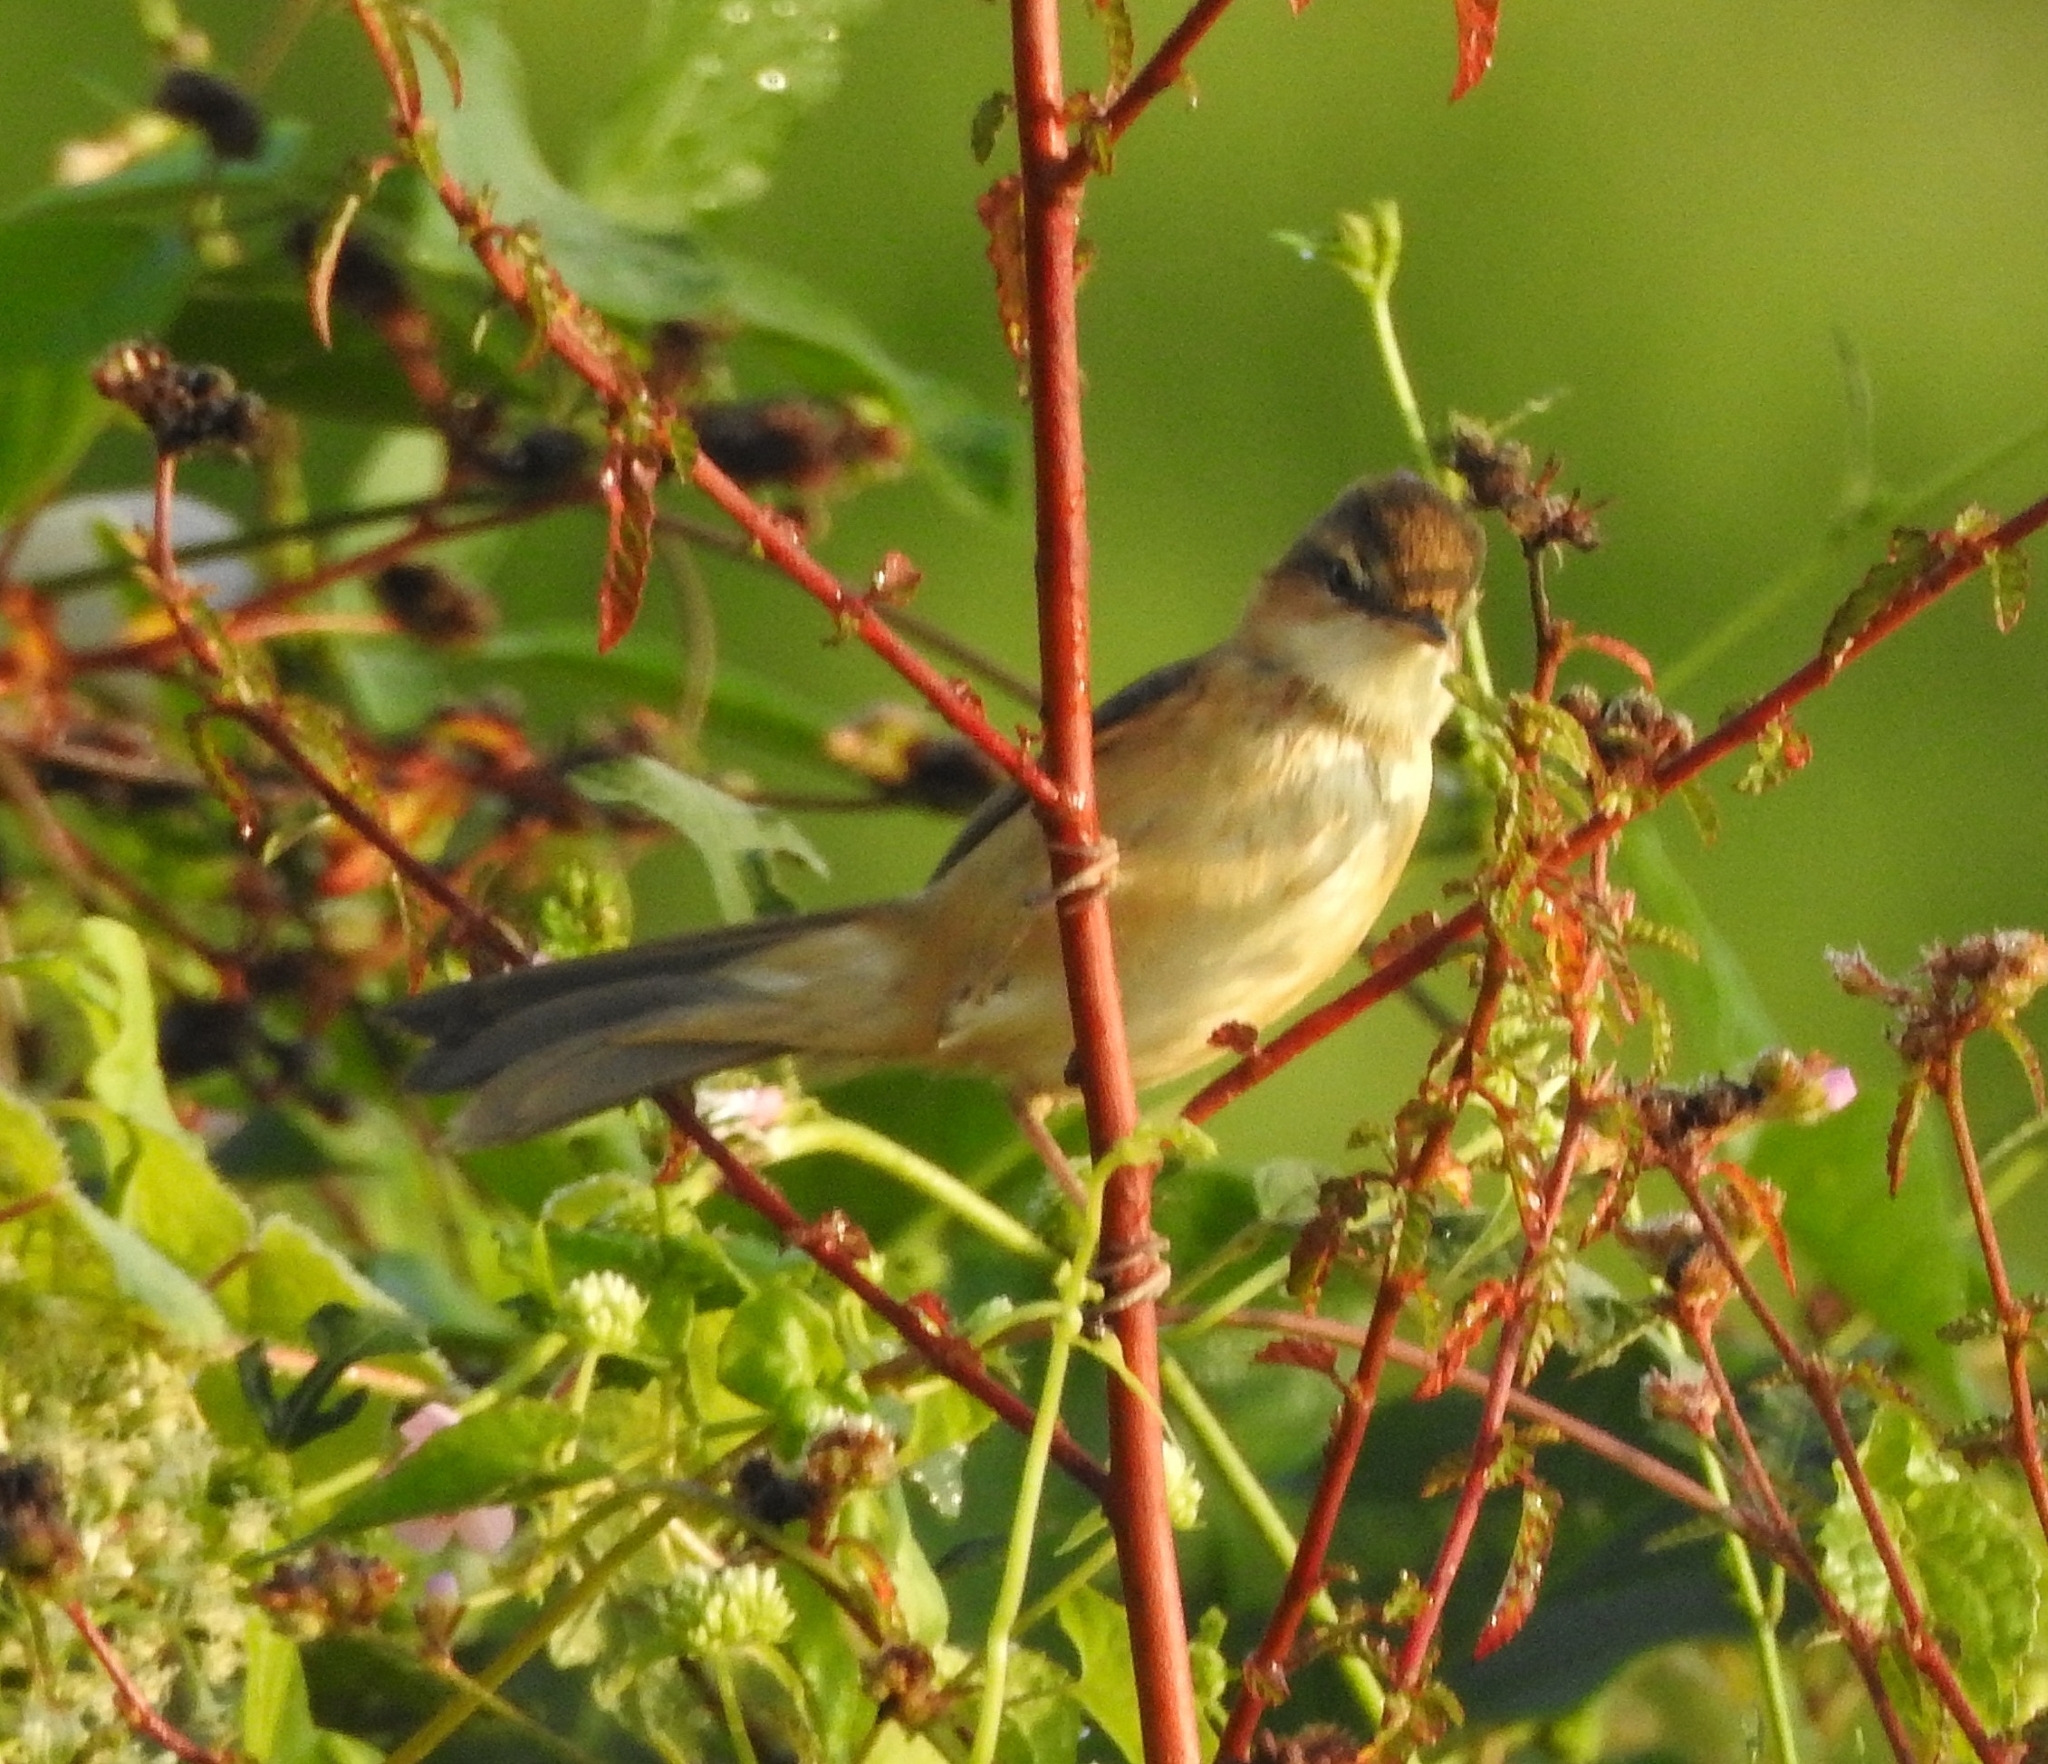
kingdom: Animalia
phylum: Chordata
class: Aves
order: Passeriformes
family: Acrocephalidae
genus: Acrocephalus
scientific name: Acrocephalus agricola
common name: Paddyfield warbler
